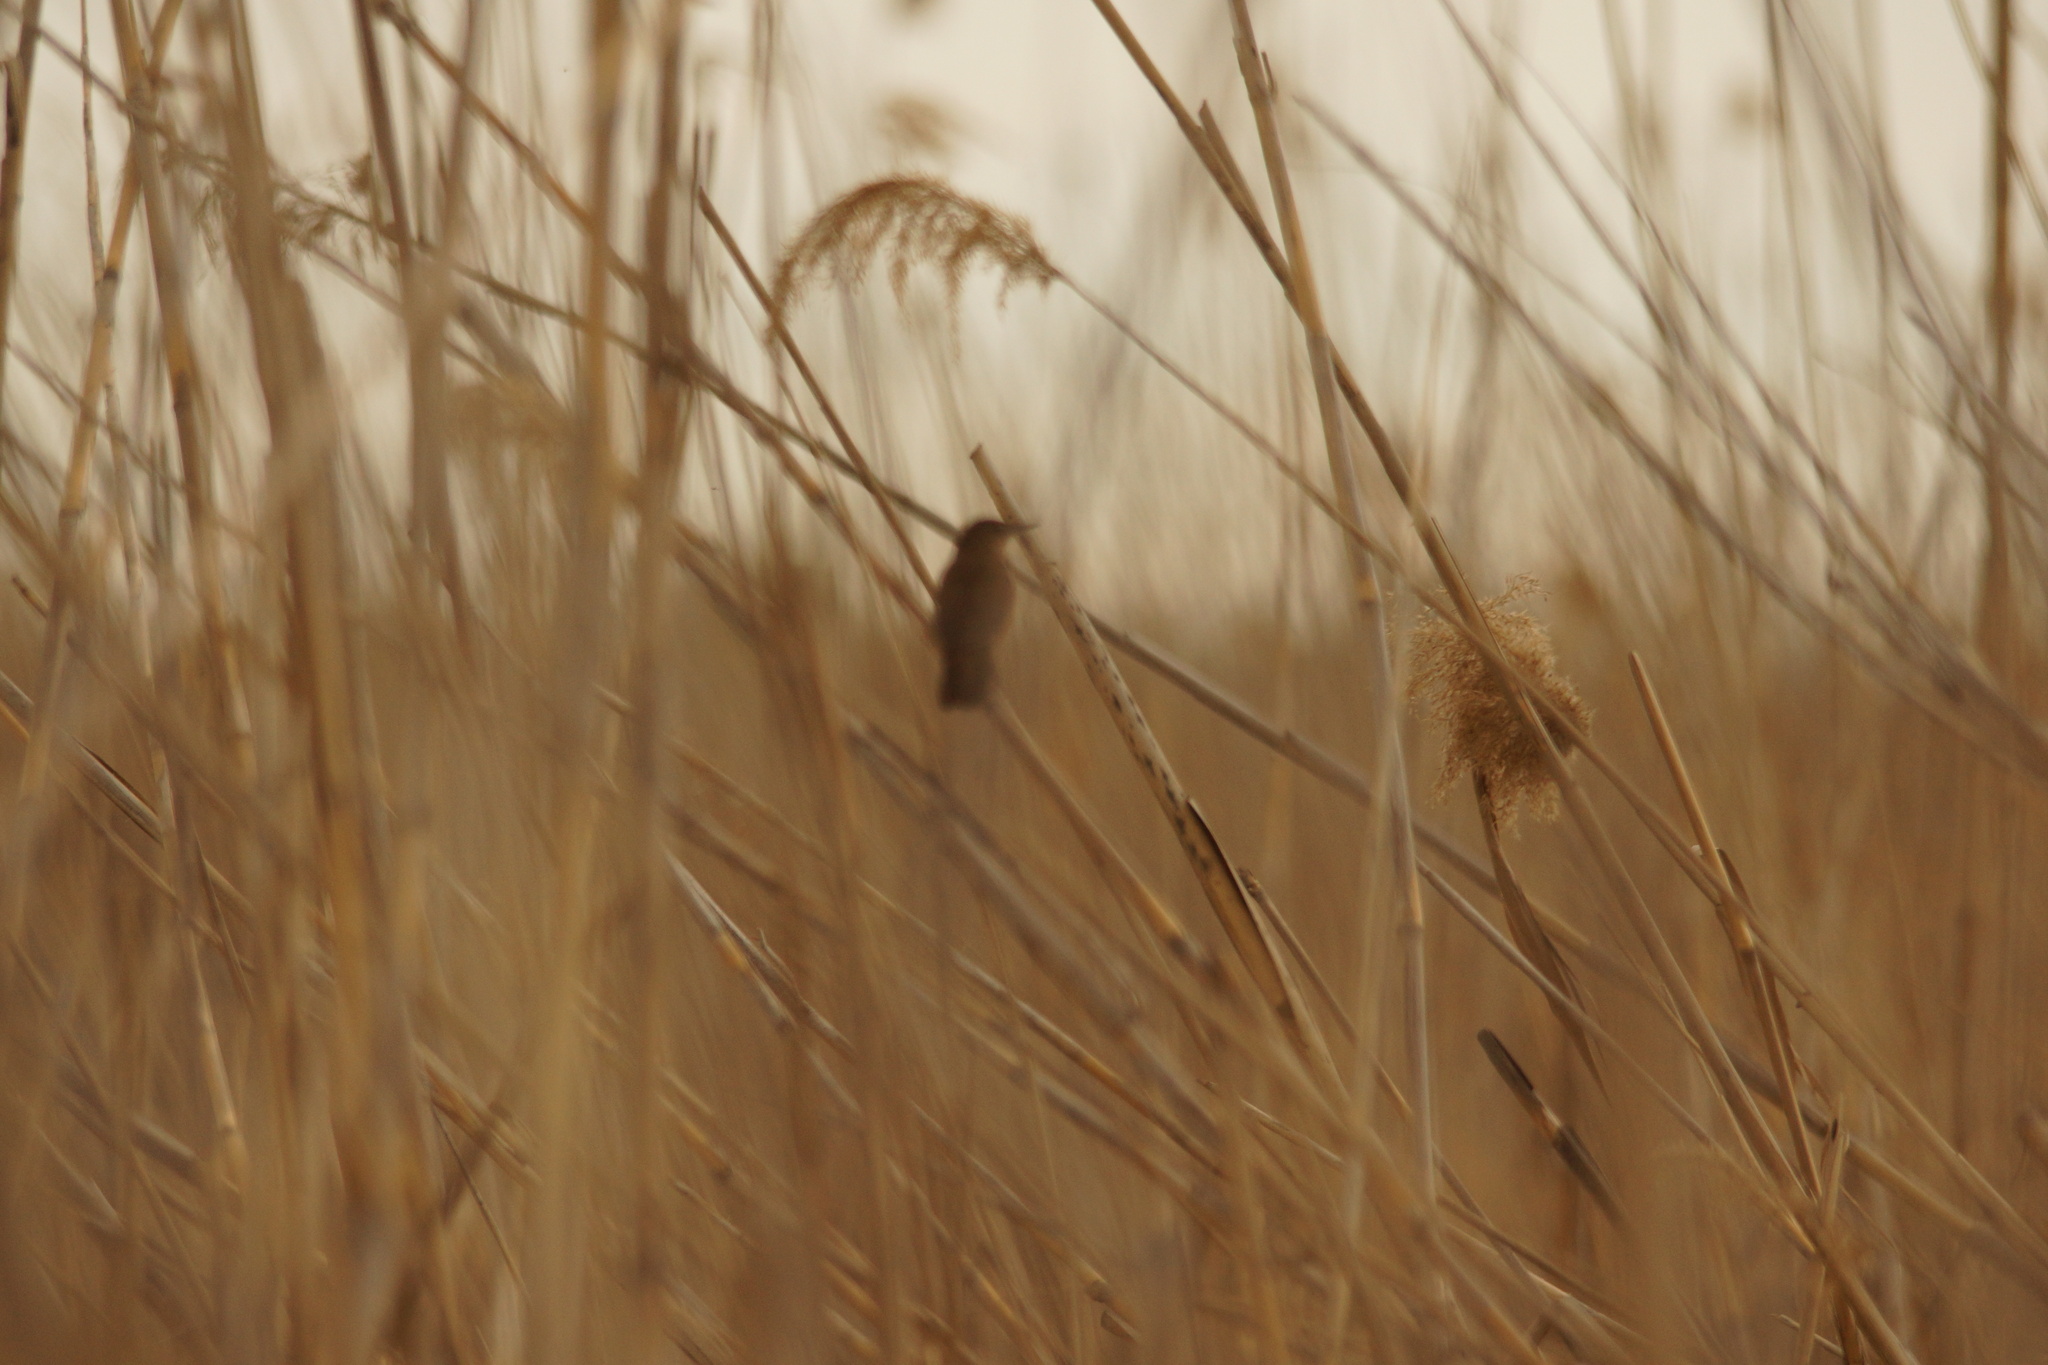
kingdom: Animalia
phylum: Chordata
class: Aves
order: Passeriformes
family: Locustellidae
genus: Locustella
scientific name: Locustella luscinioides
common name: Savi's warbler
